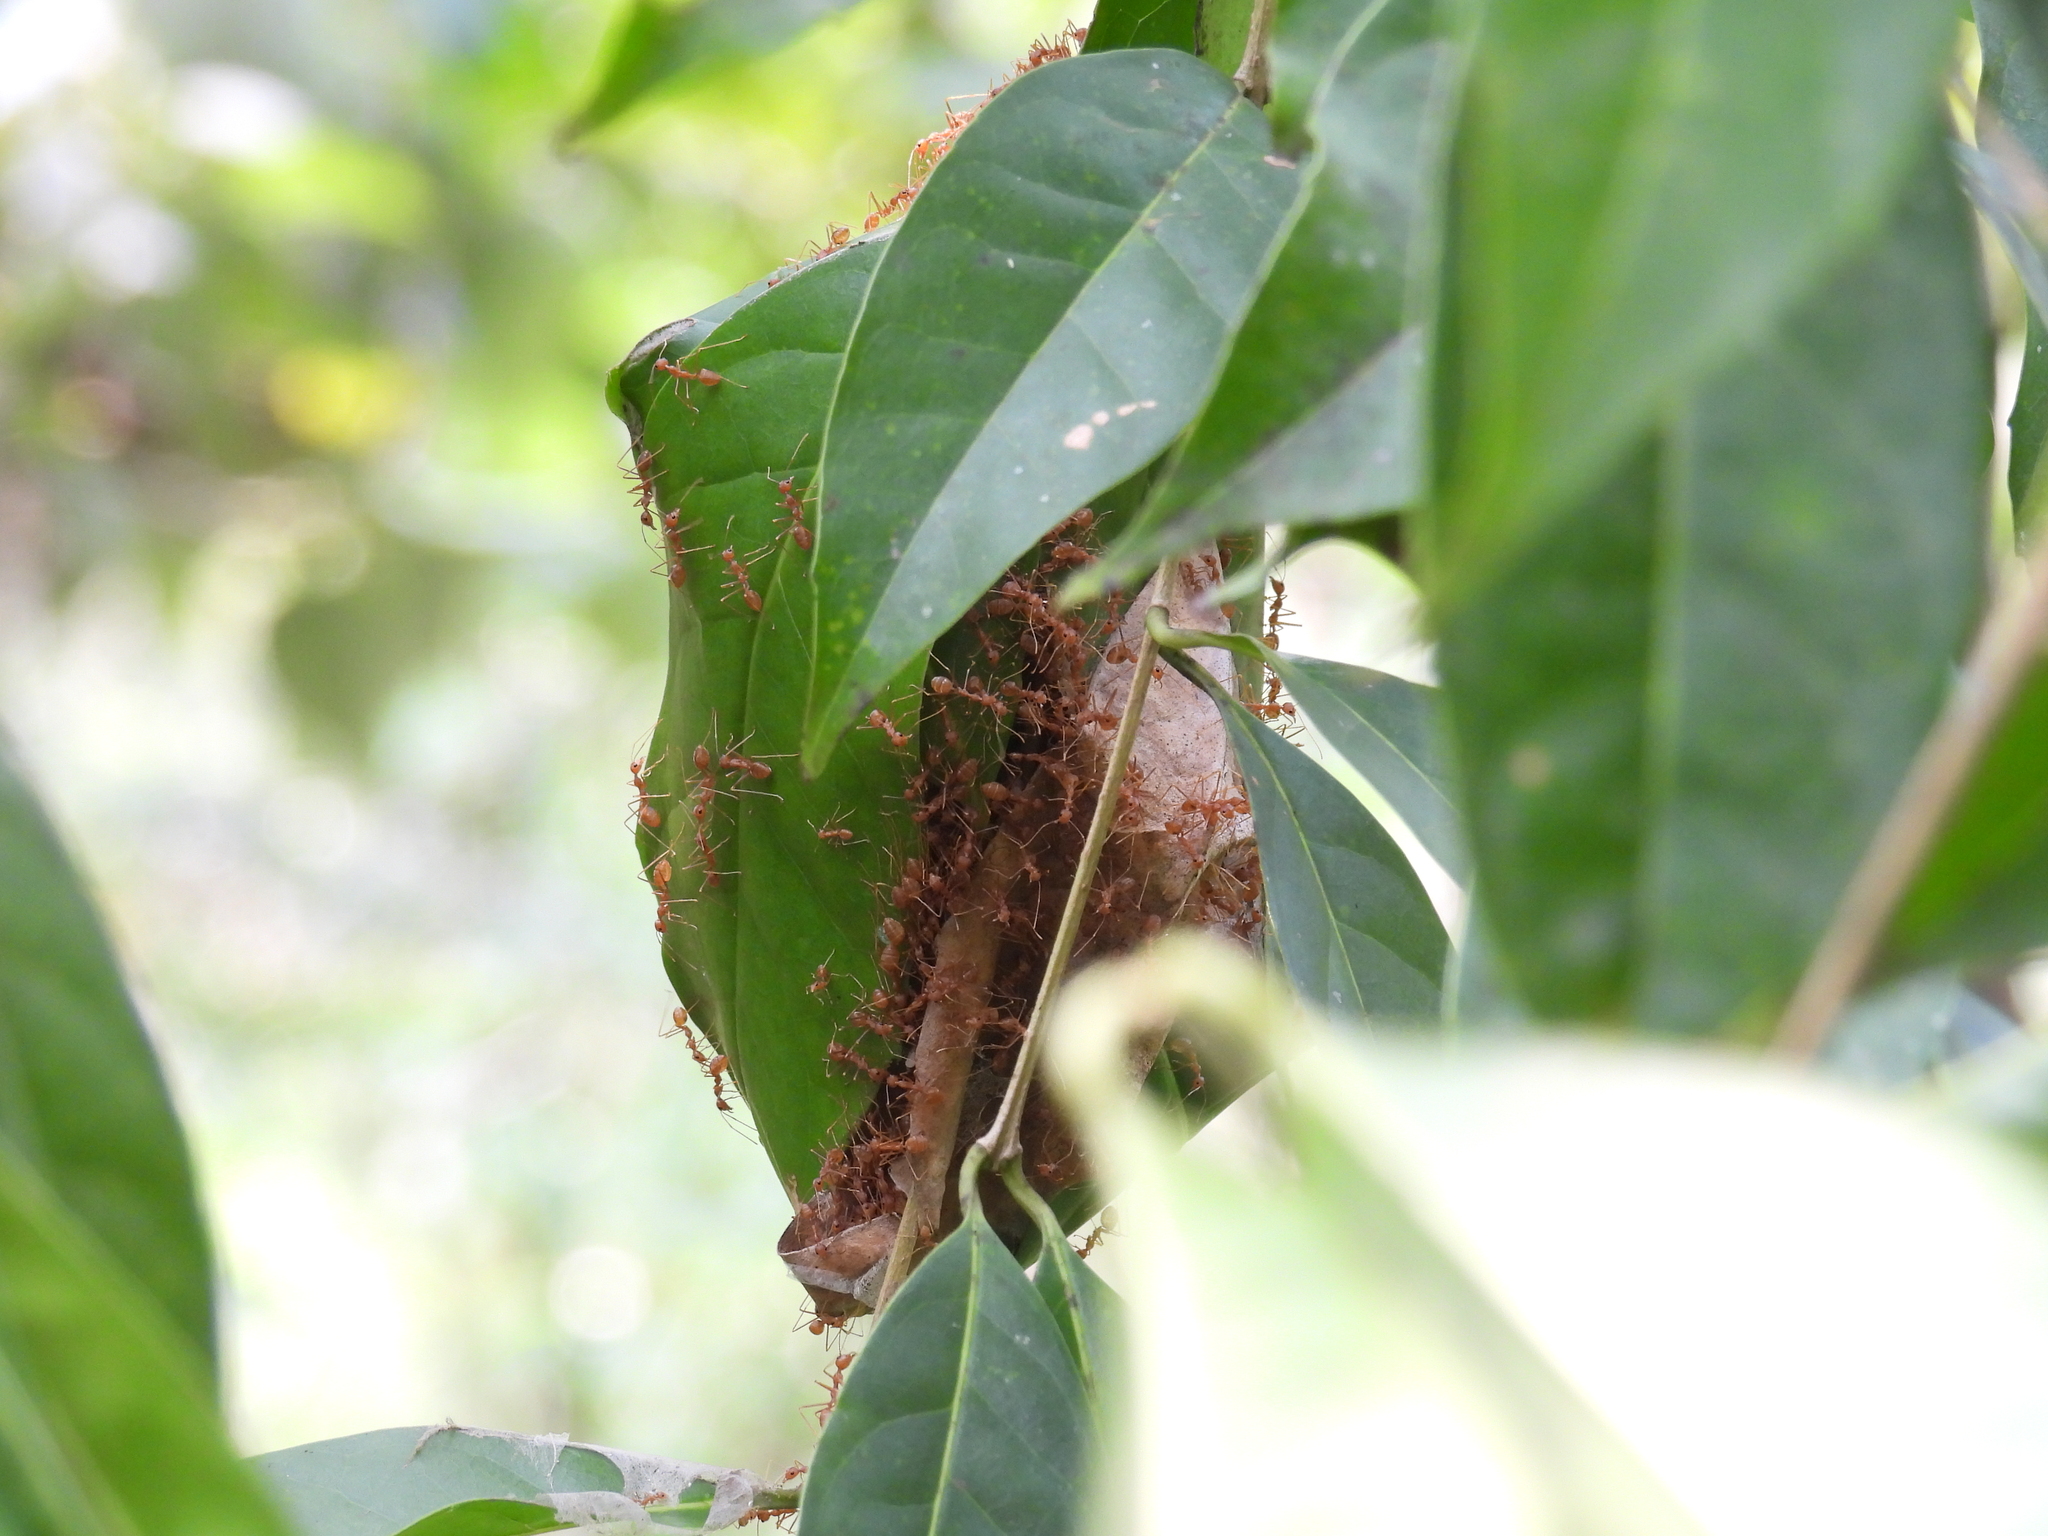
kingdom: Animalia
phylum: Arthropoda
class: Insecta
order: Hymenoptera
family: Formicidae
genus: Oecophylla
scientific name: Oecophylla smaragdina
